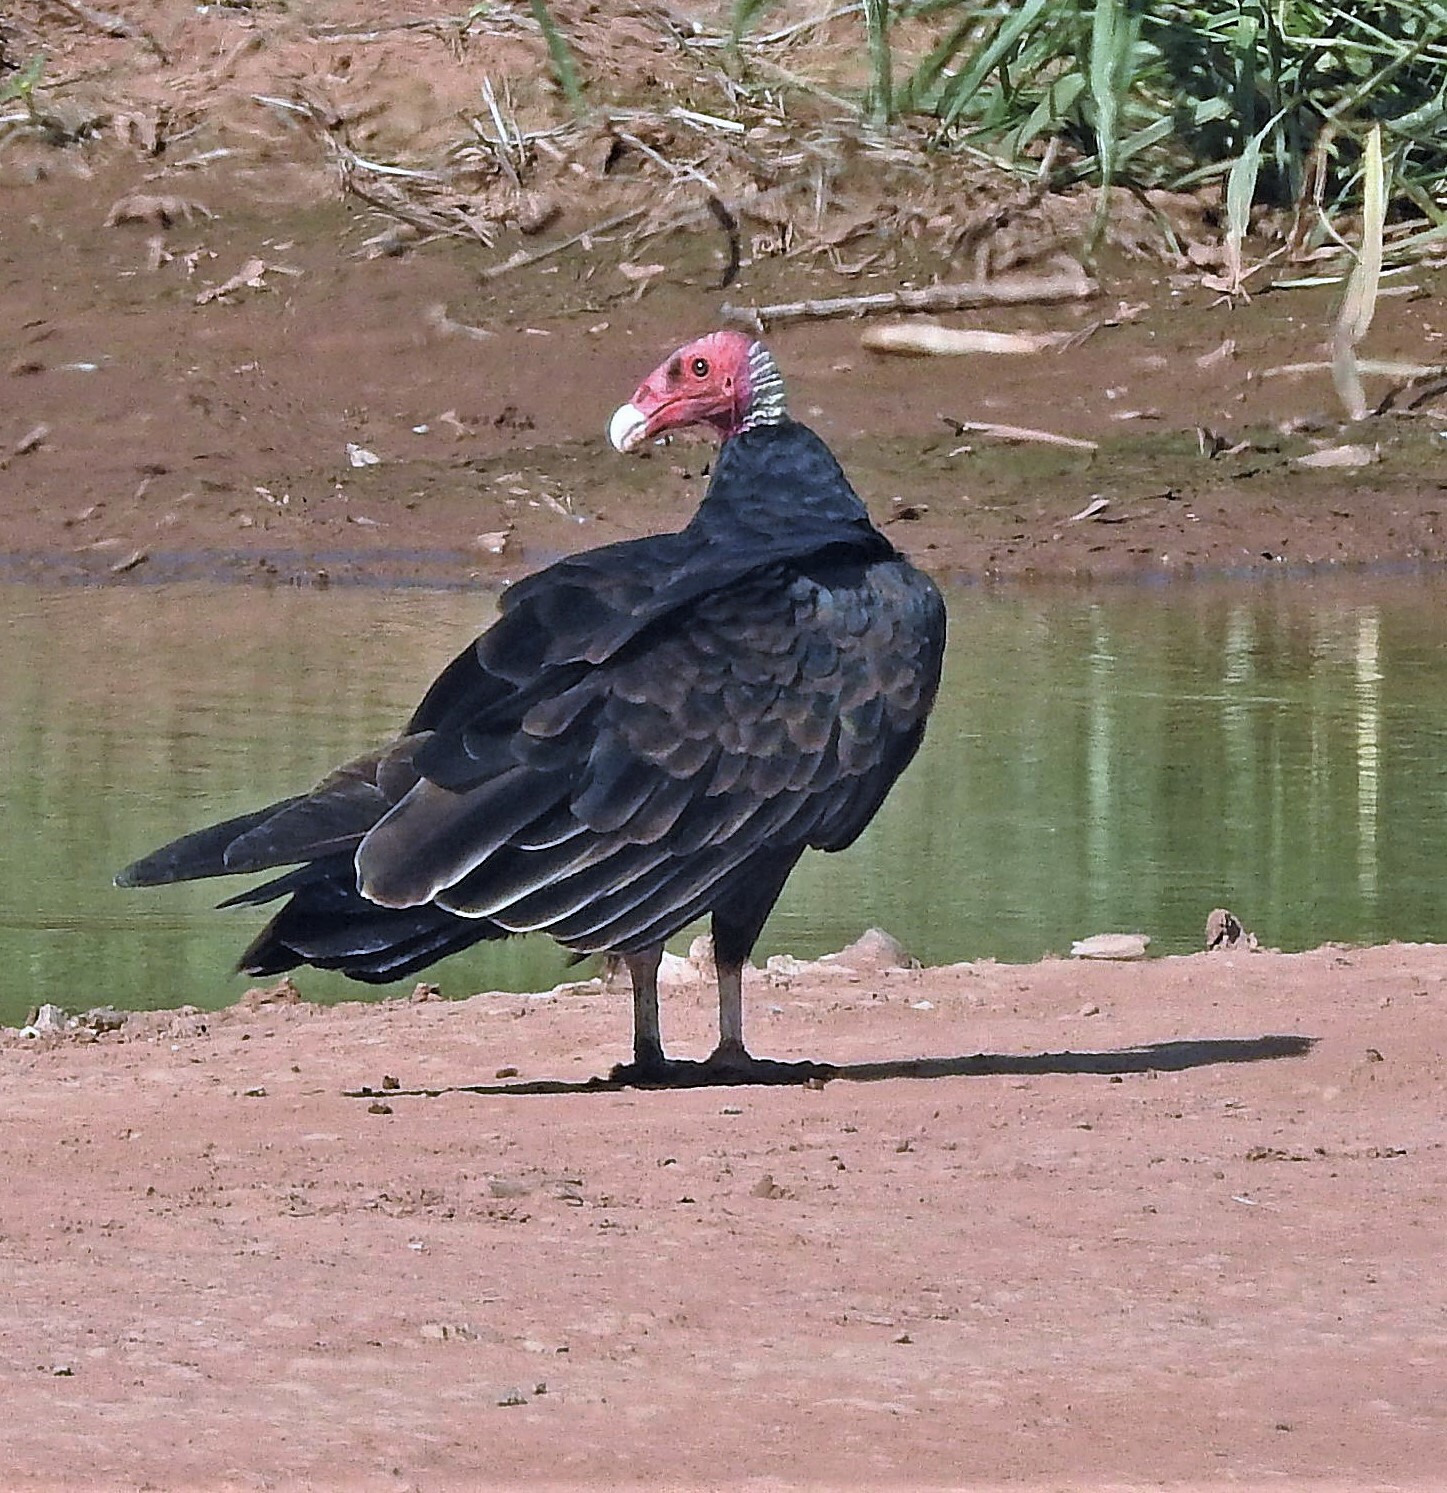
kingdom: Animalia
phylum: Chordata
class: Aves
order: Accipitriformes
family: Cathartidae
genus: Cathartes
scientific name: Cathartes aura
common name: Turkey vulture
